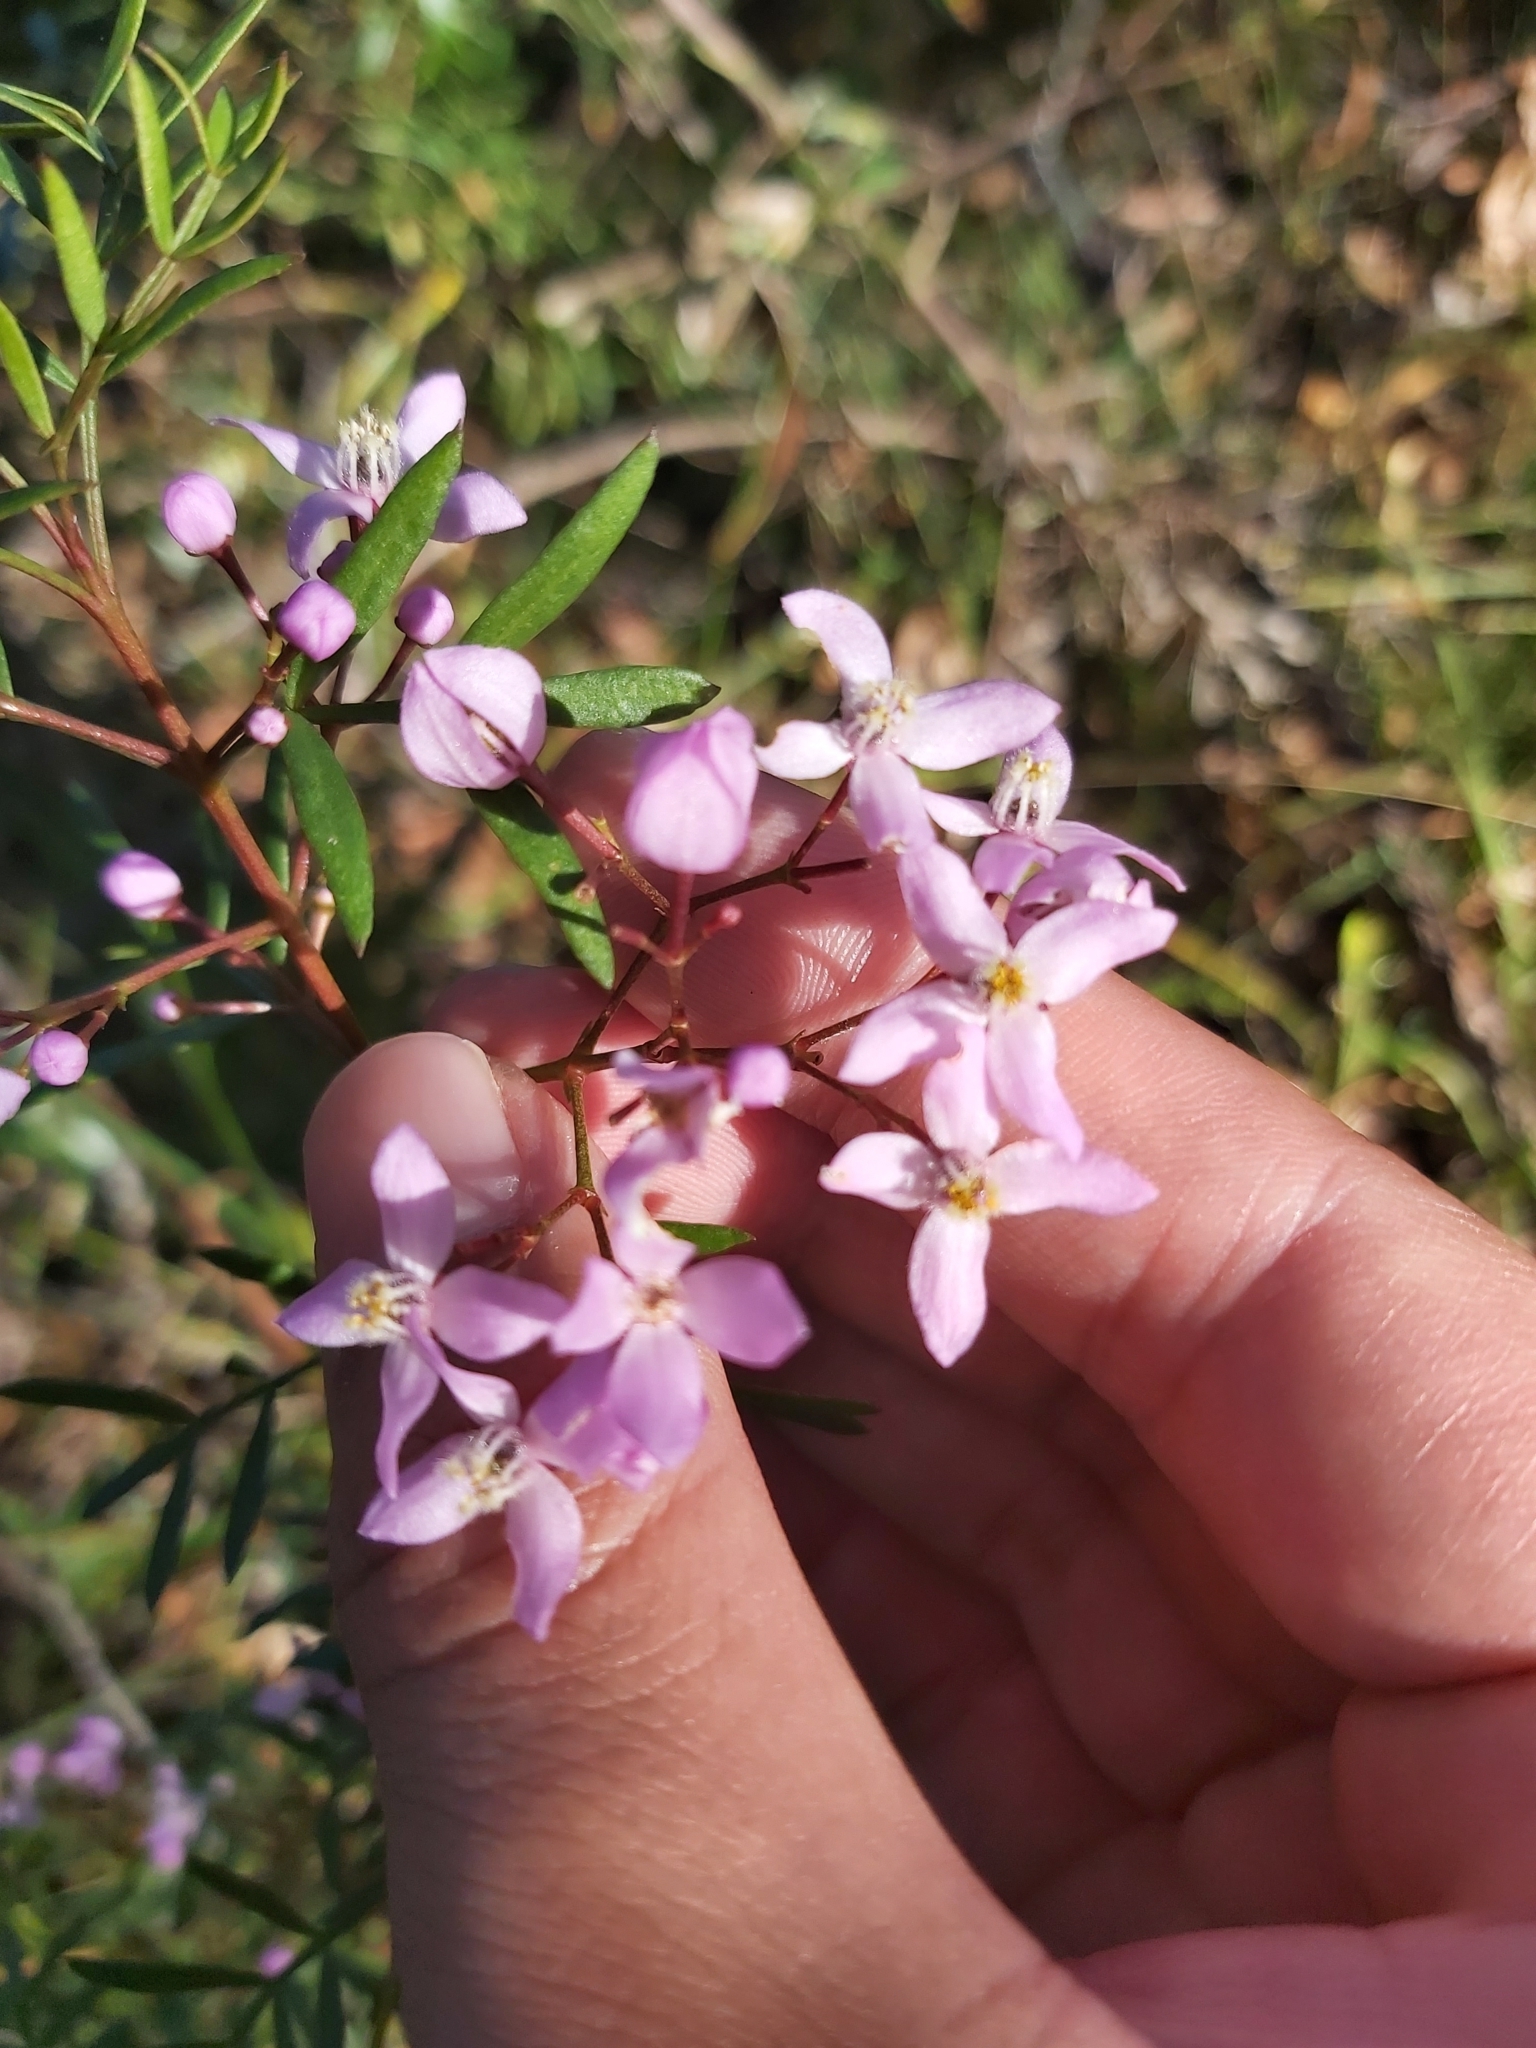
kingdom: Plantae
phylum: Tracheophyta
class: Magnoliopsida
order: Sapindales
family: Rutaceae
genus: Boronia
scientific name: Boronia pinnata
